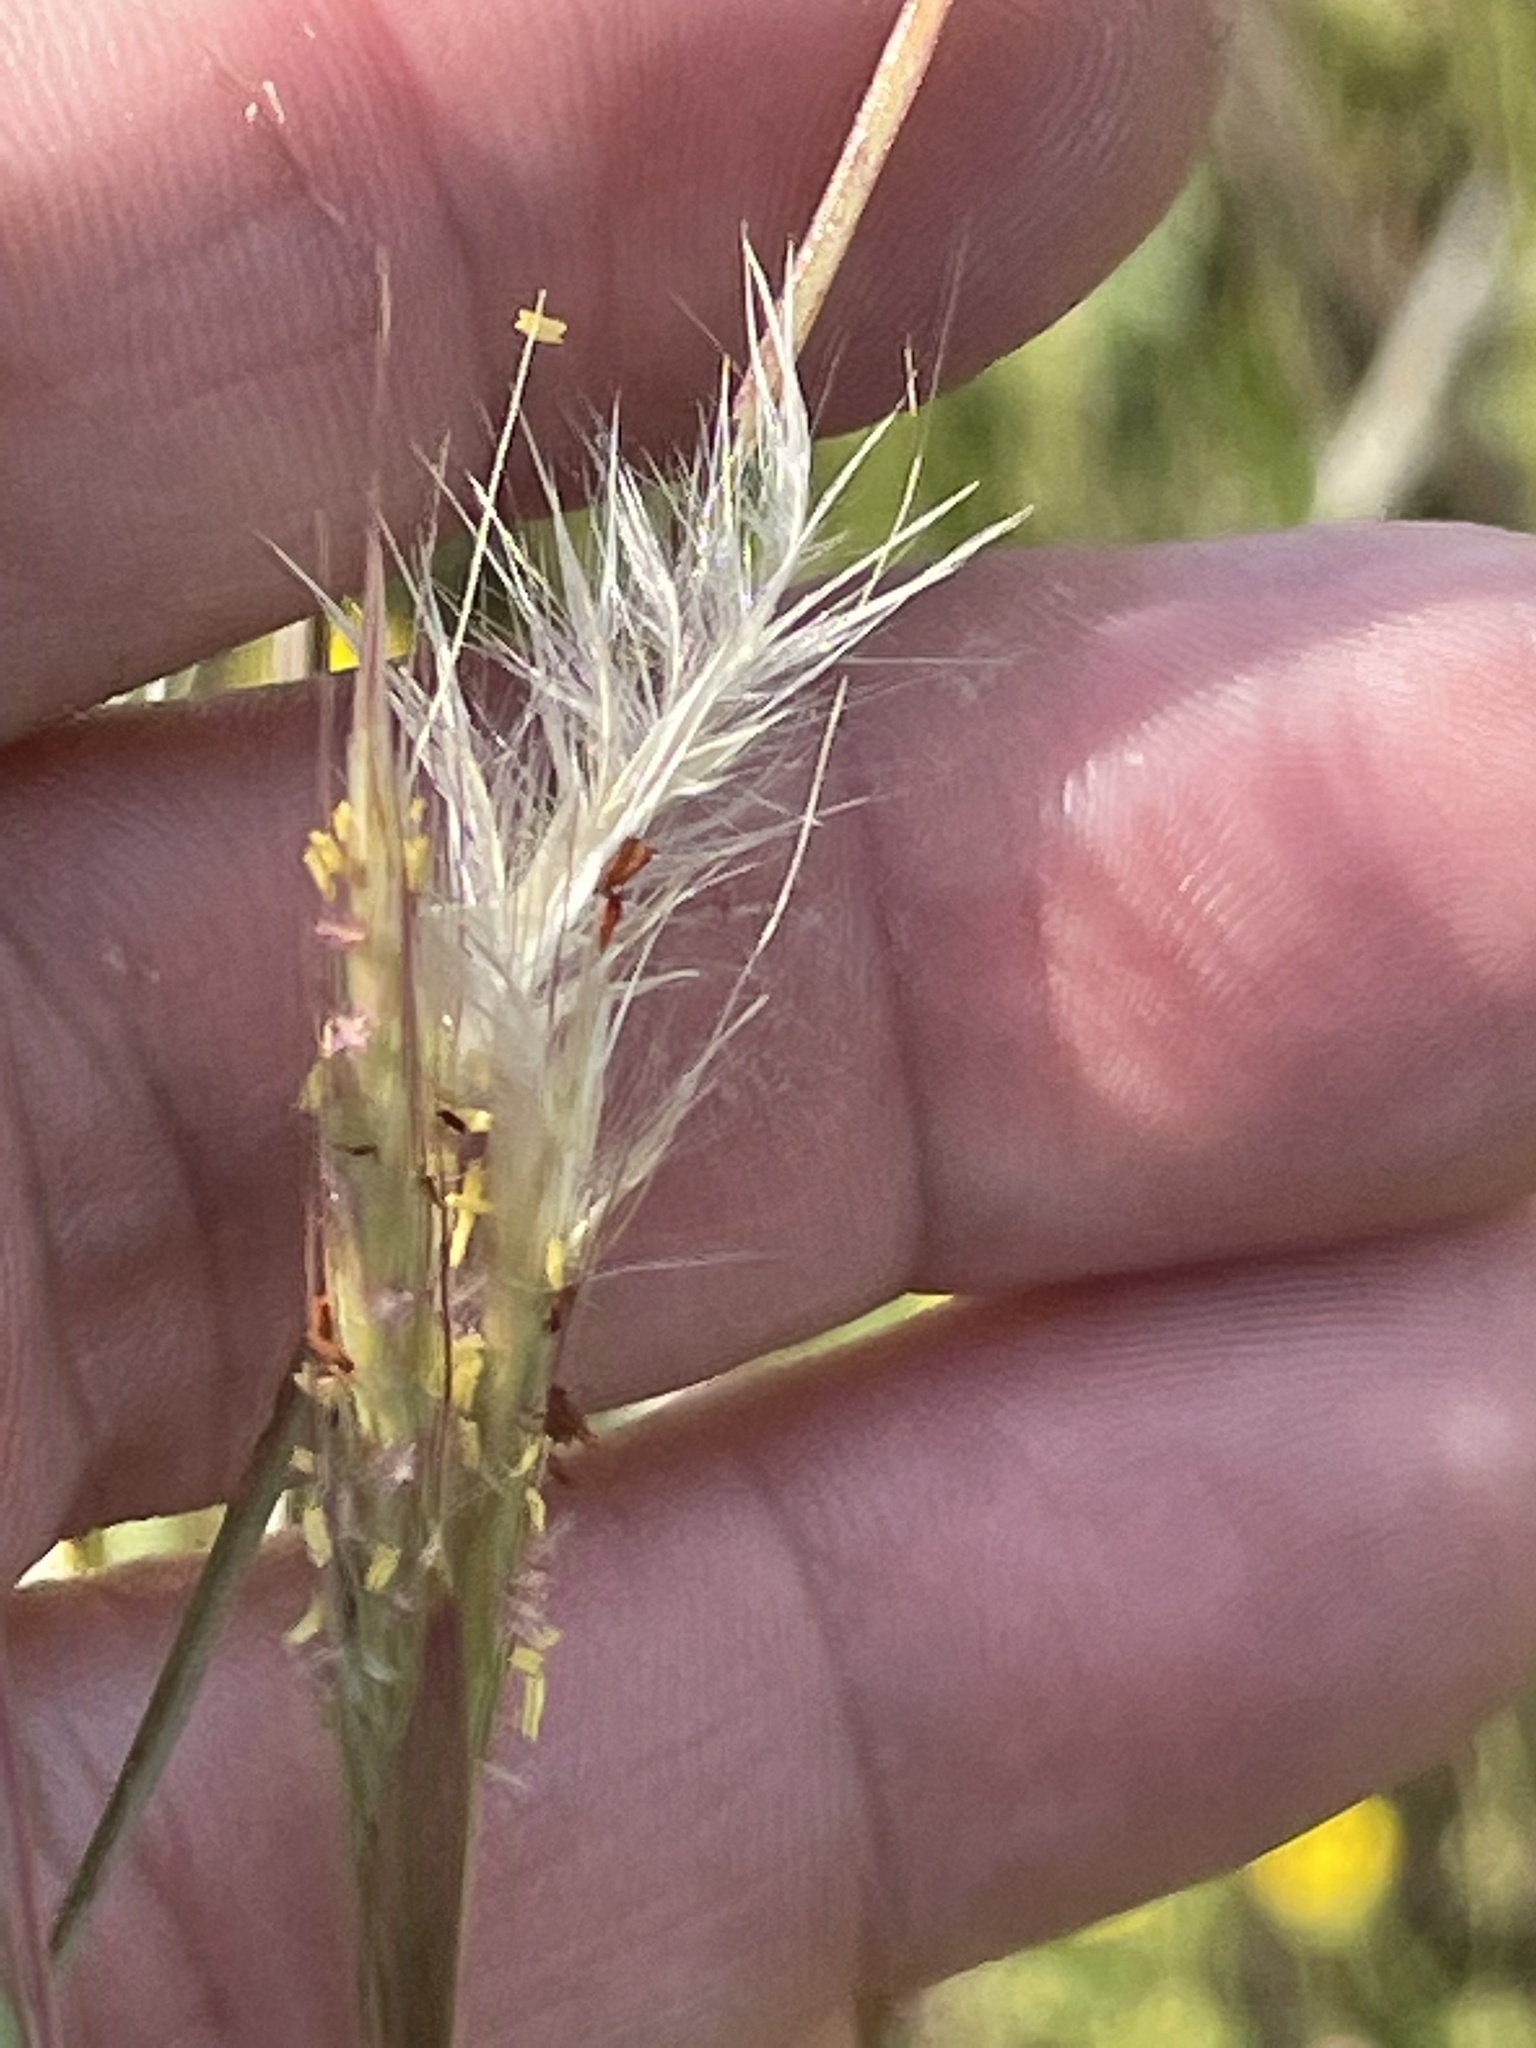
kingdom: Plantae
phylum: Tracheophyta
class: Liliopsida
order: Poales
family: Poaceae
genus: Andropogon
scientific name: Andropogon ternarius
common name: Split bluestem
